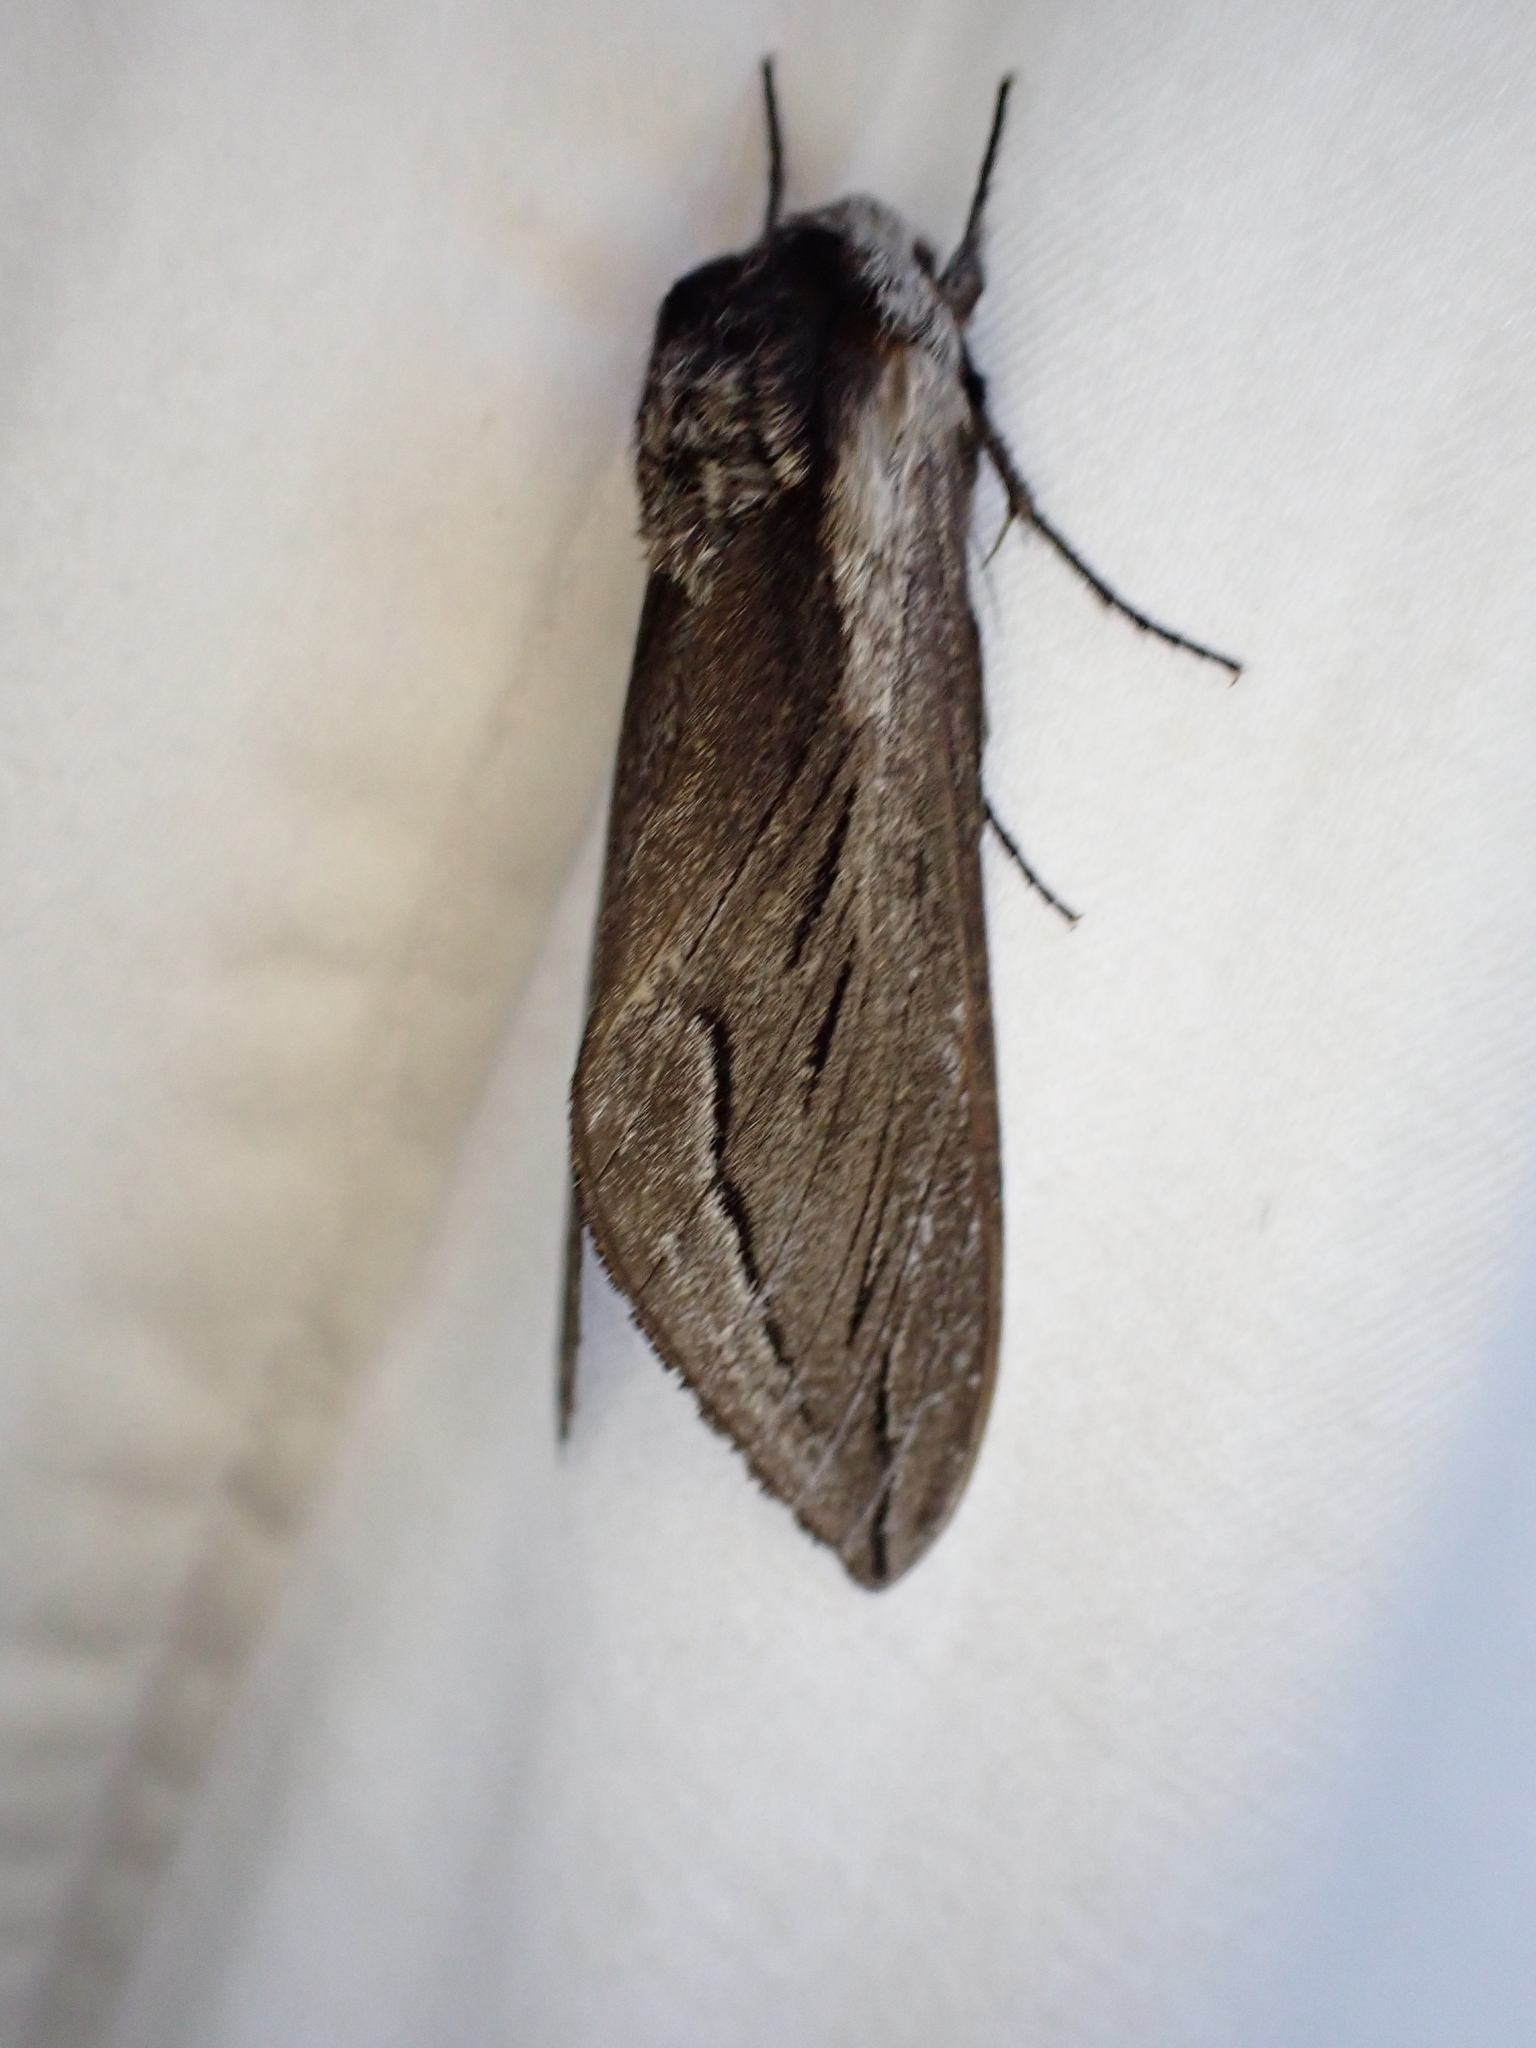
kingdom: Animalia
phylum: Arthropoda
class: Insecta
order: Lepidoptera
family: Sphingidae
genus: Sphinx
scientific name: Sphinx vashti
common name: Snowberry sphinx
